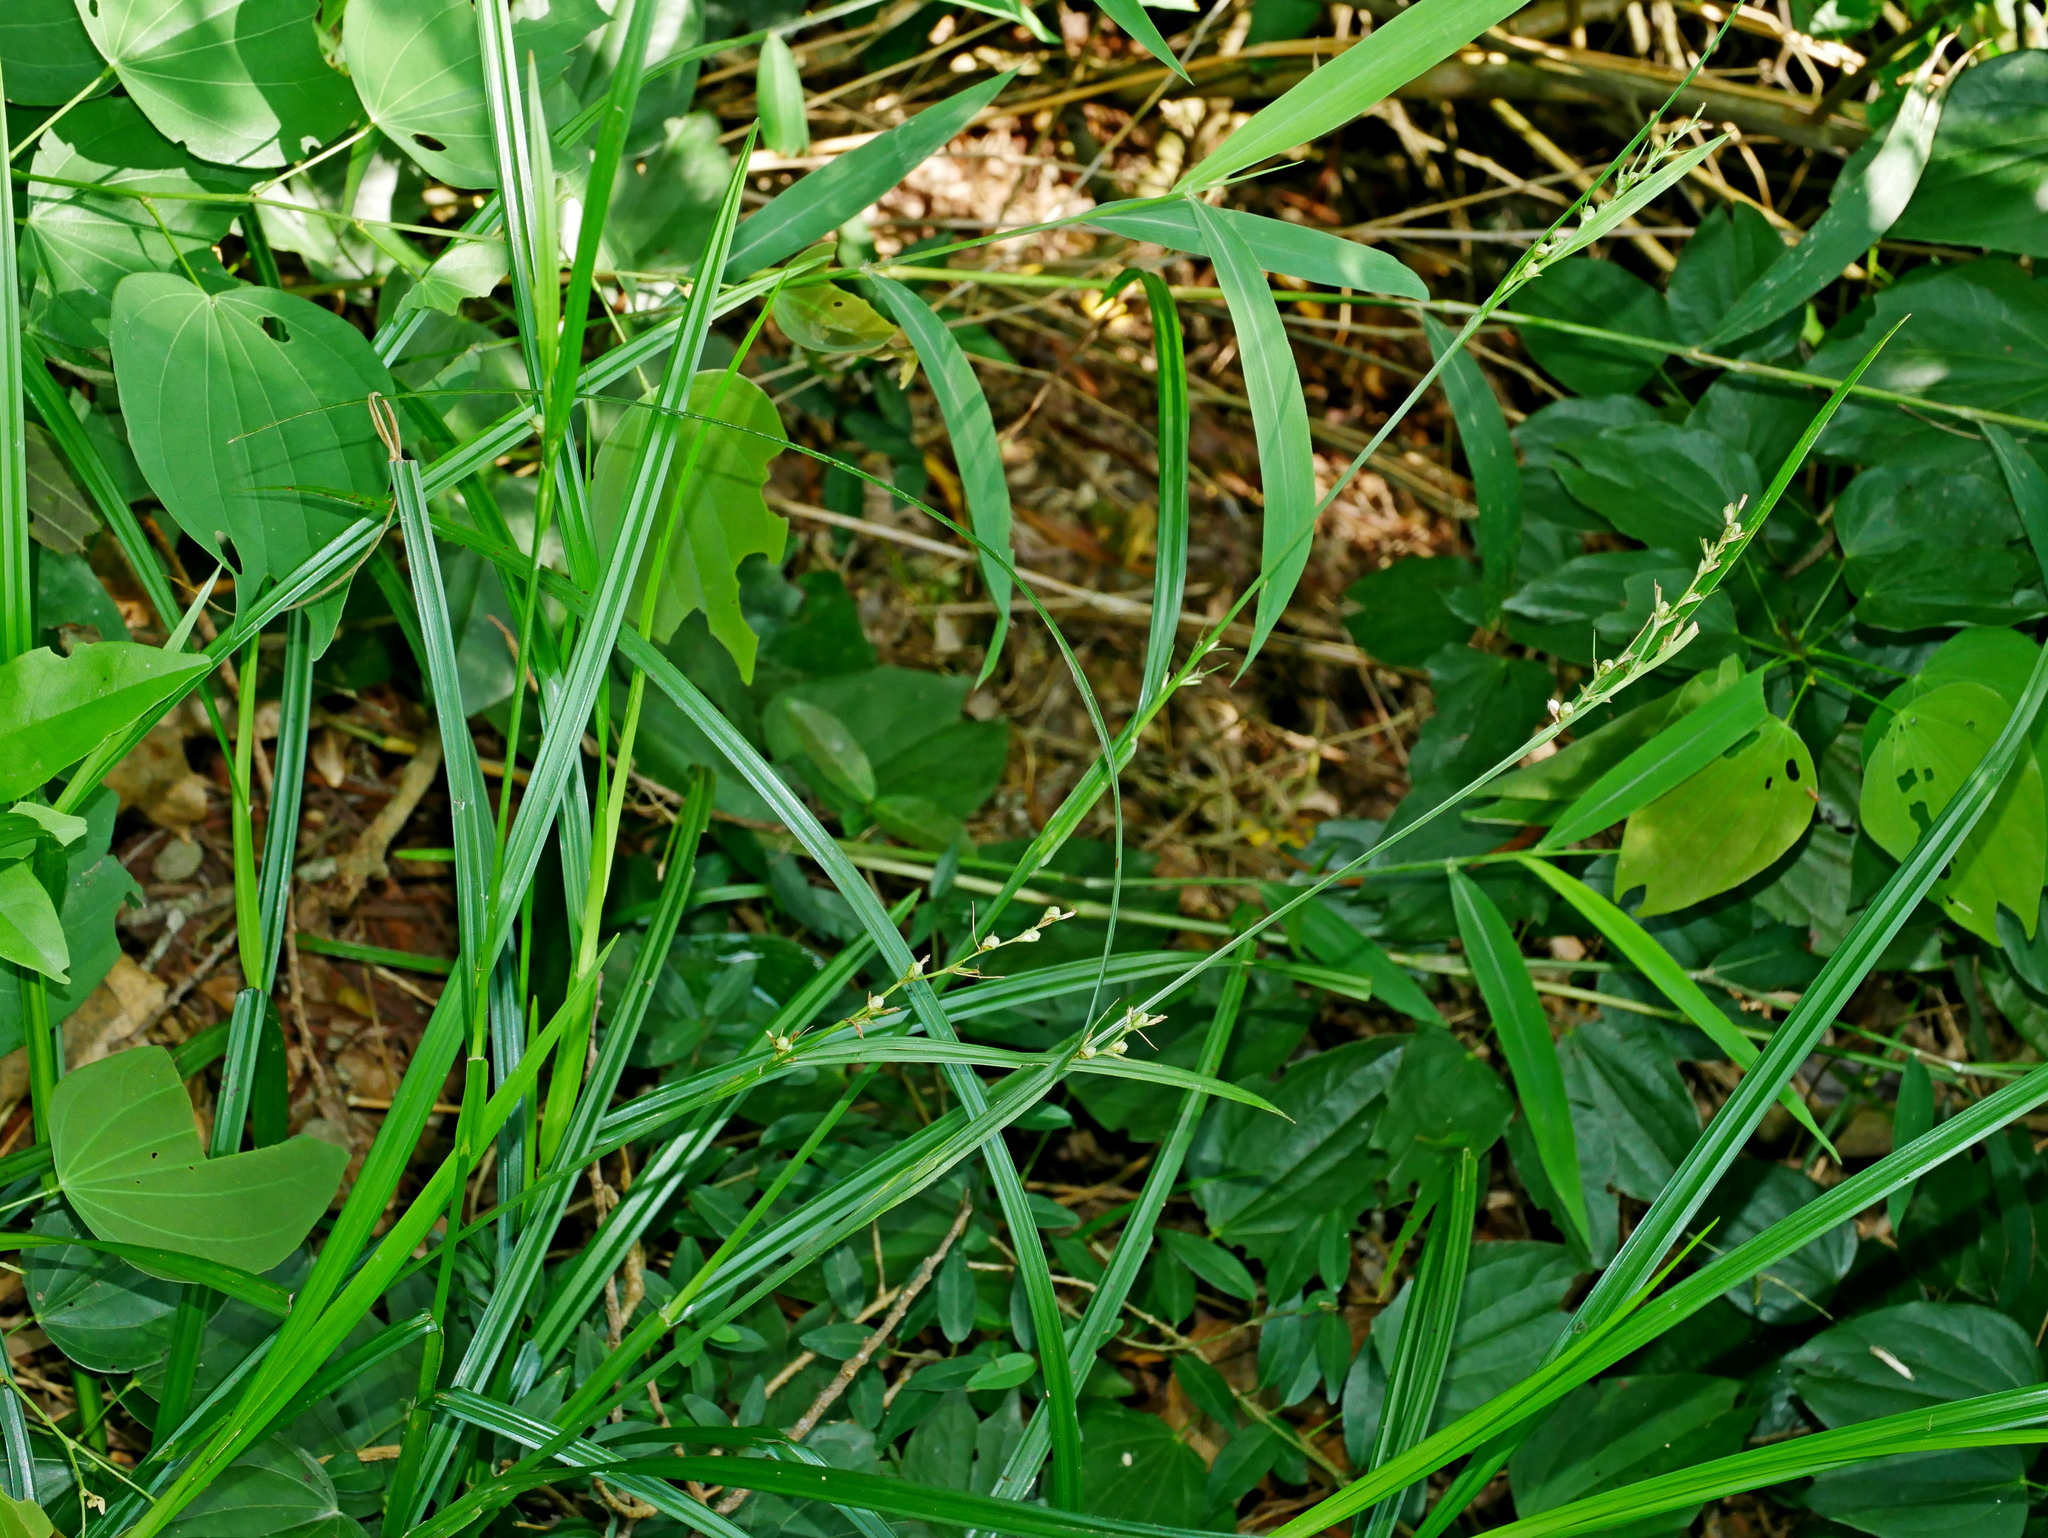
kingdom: Plantae
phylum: Tracheophyta
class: Liliopsida
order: Poales
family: Cyperaceae
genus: Scleria
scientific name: Scleria levis
